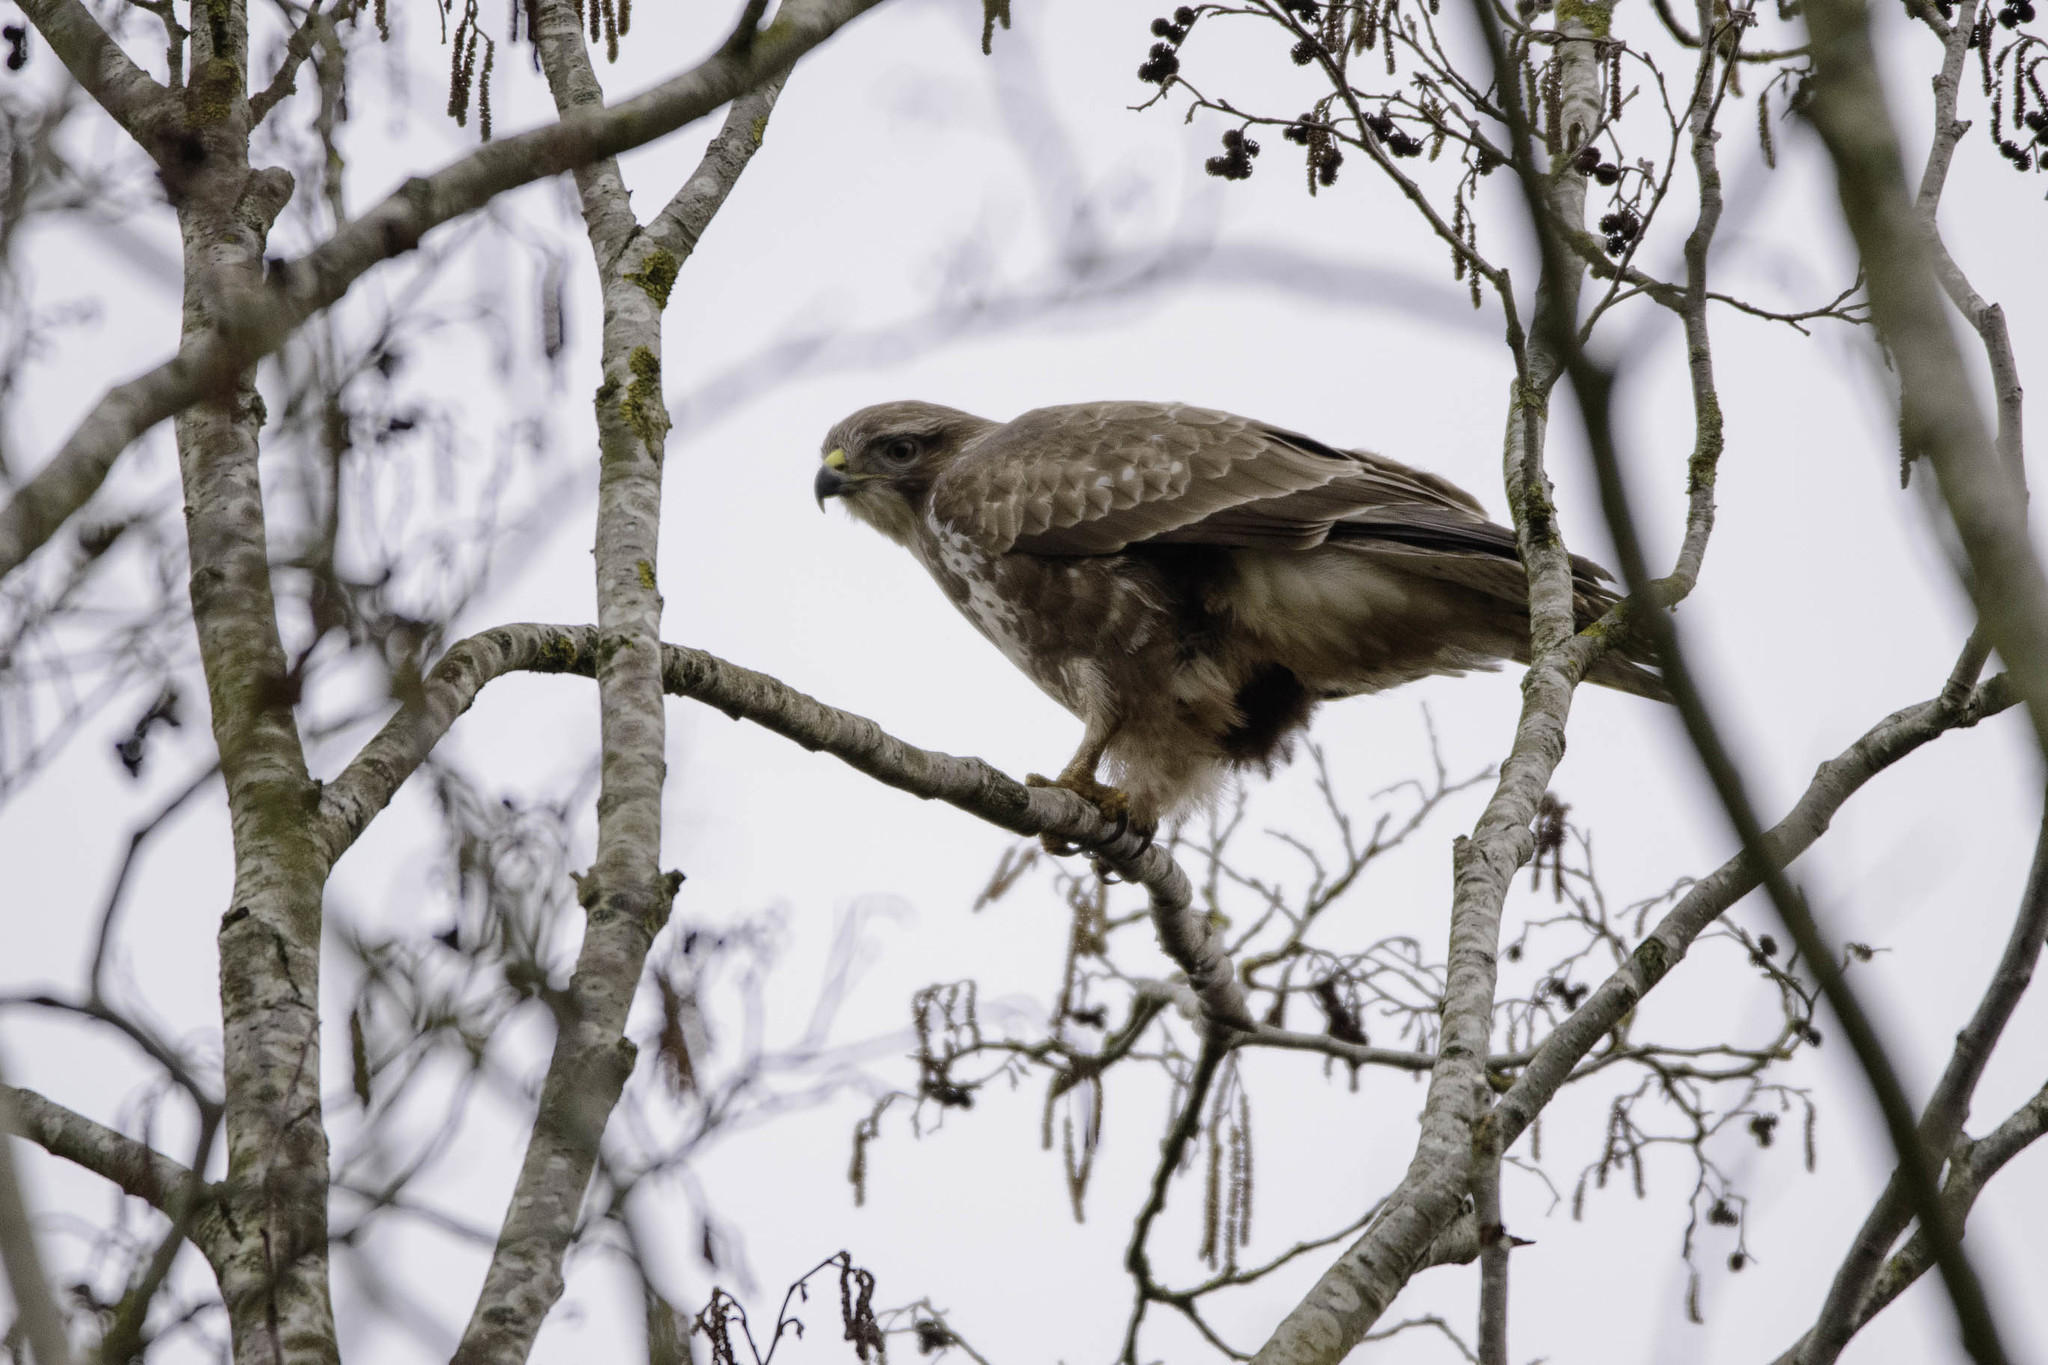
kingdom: Animalia
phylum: Chordata
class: Aves
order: Accipitriformes
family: Accipitridae
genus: Buteo
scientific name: Buteo buteo
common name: Common buzzard
